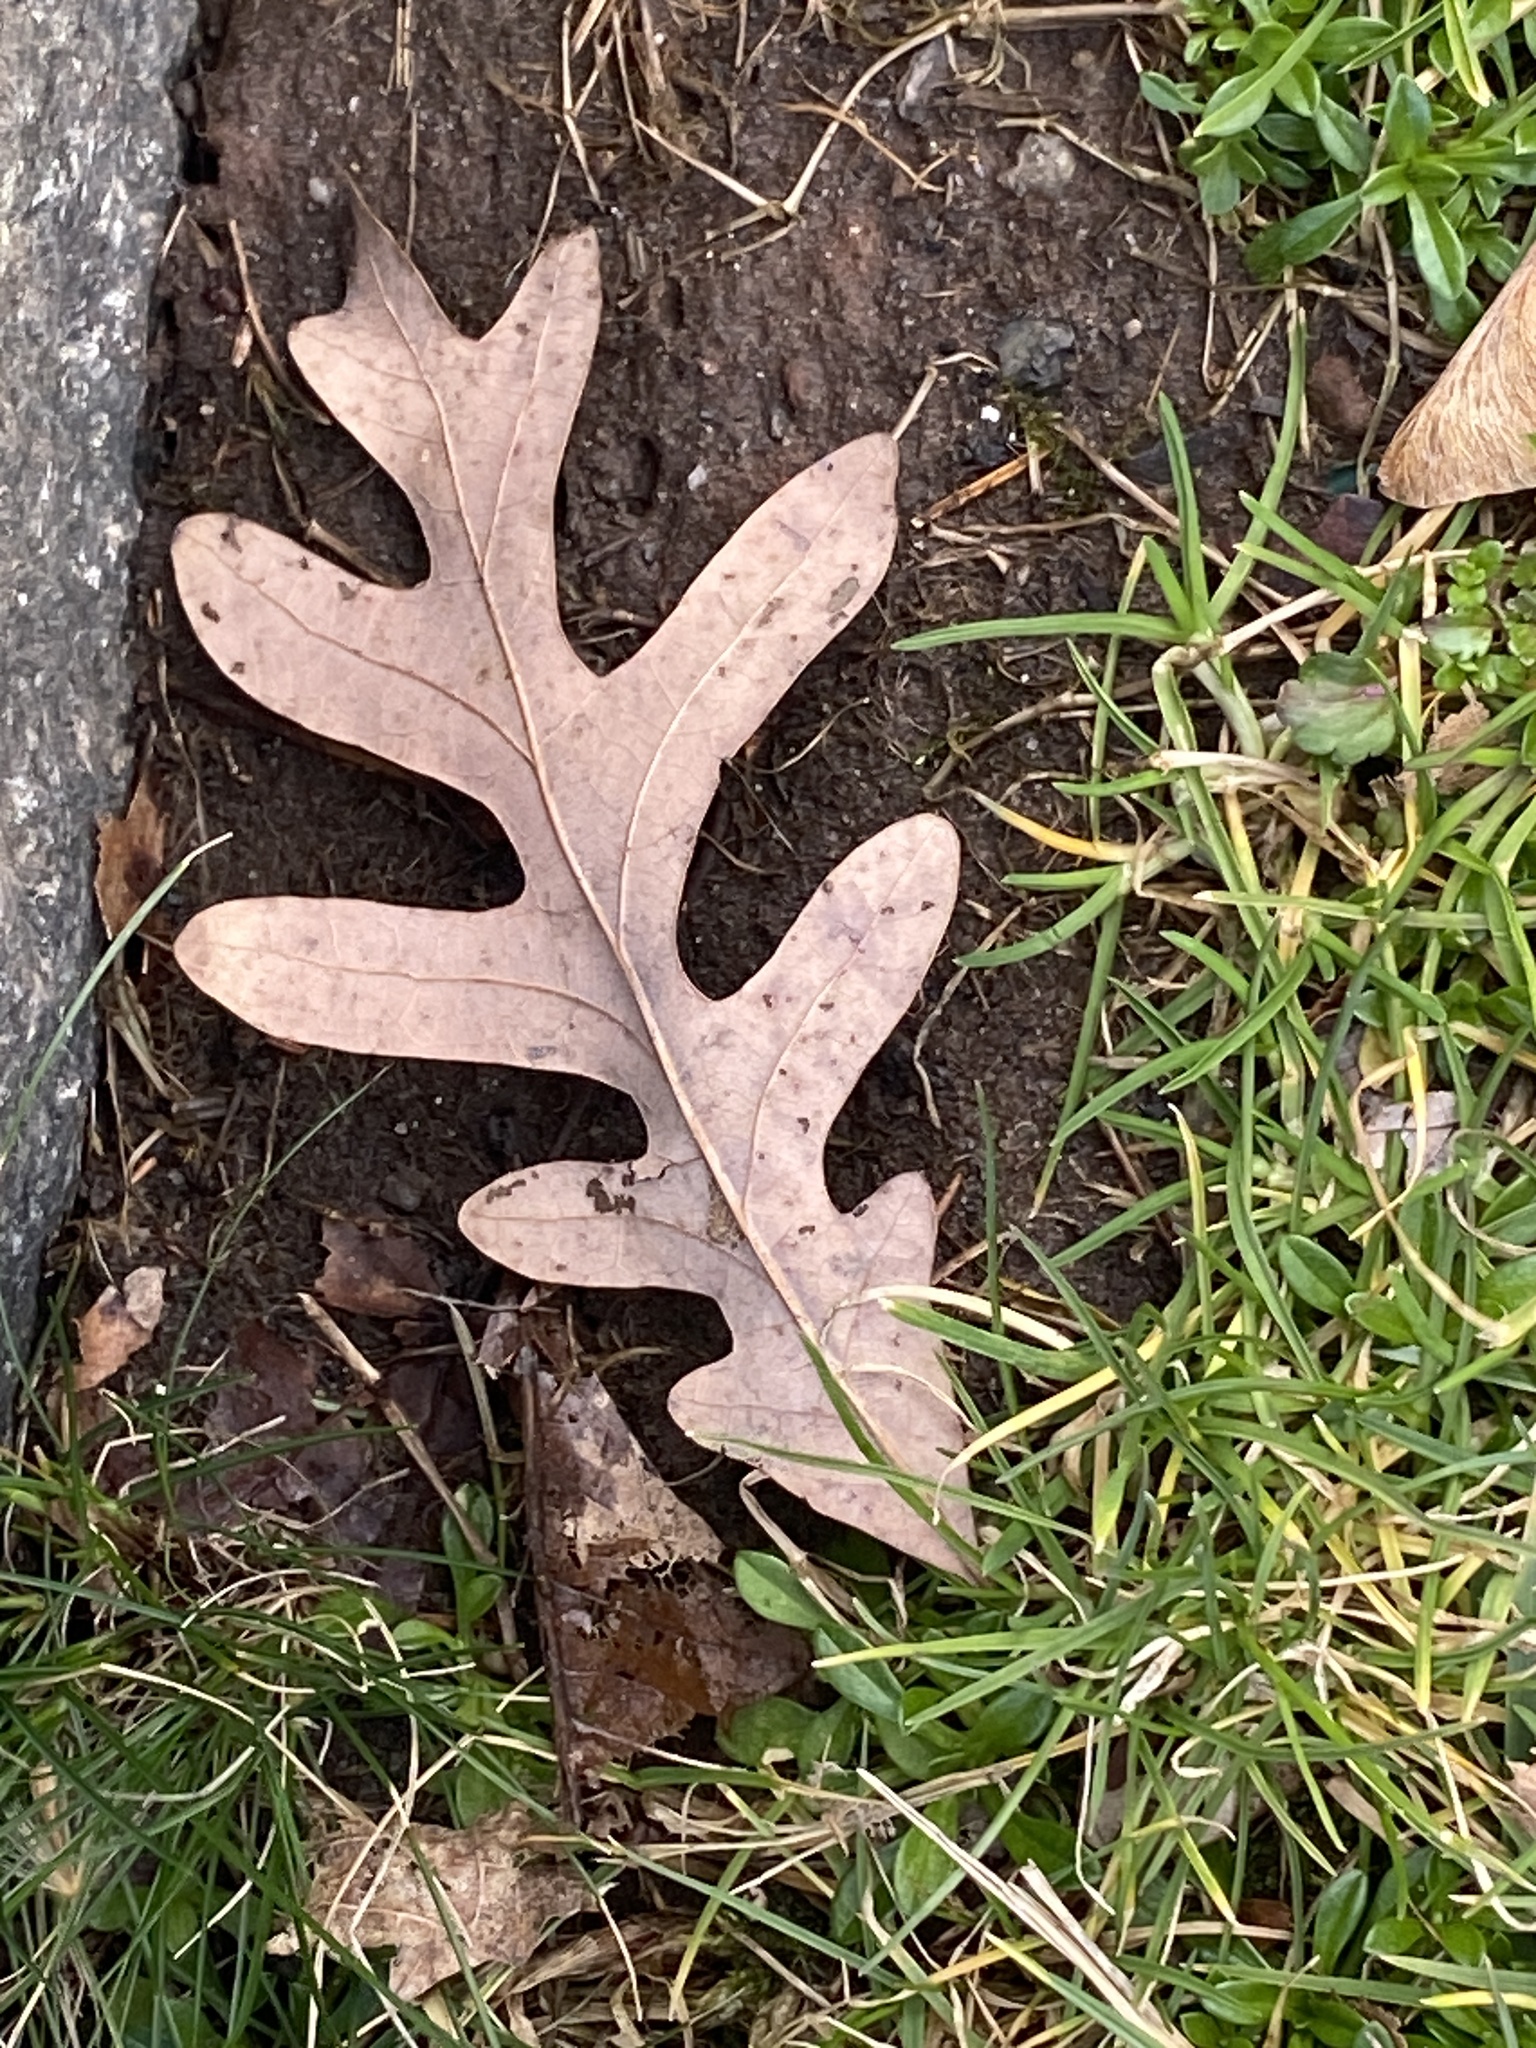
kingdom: Plantae
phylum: Tracheophyta
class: Magnoliopsida
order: Fagales
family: Fagaceae
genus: Quercus
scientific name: Quercus alba
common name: White oak
